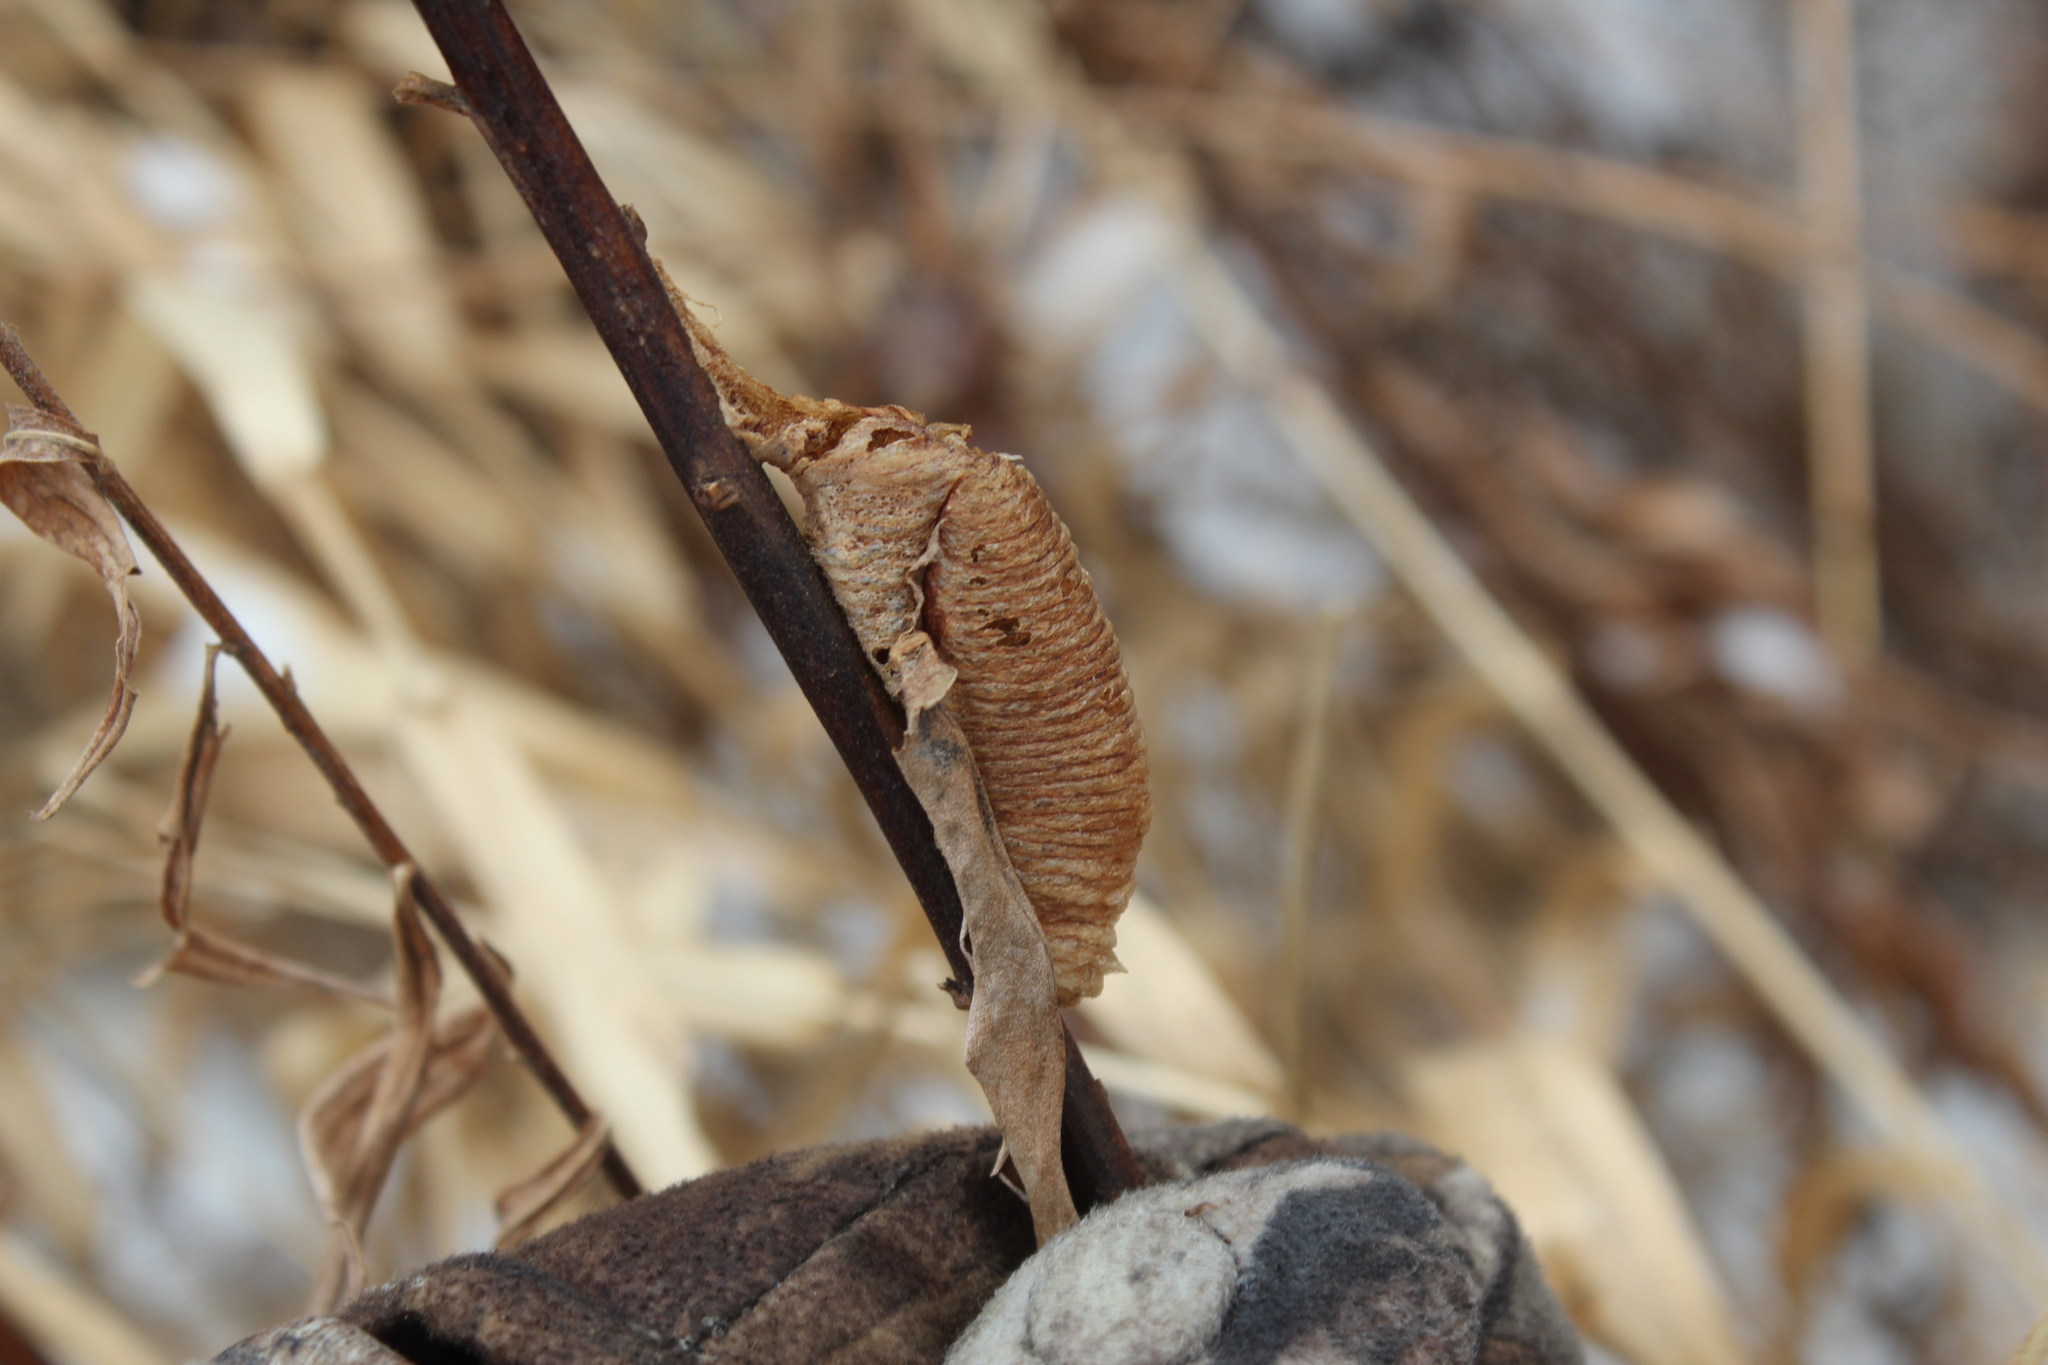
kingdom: Animalia
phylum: Arthropoda
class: Insecta
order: Mantodea
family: Mantidae
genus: Mantis
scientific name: Mantis religiosa
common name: Praying mantis
